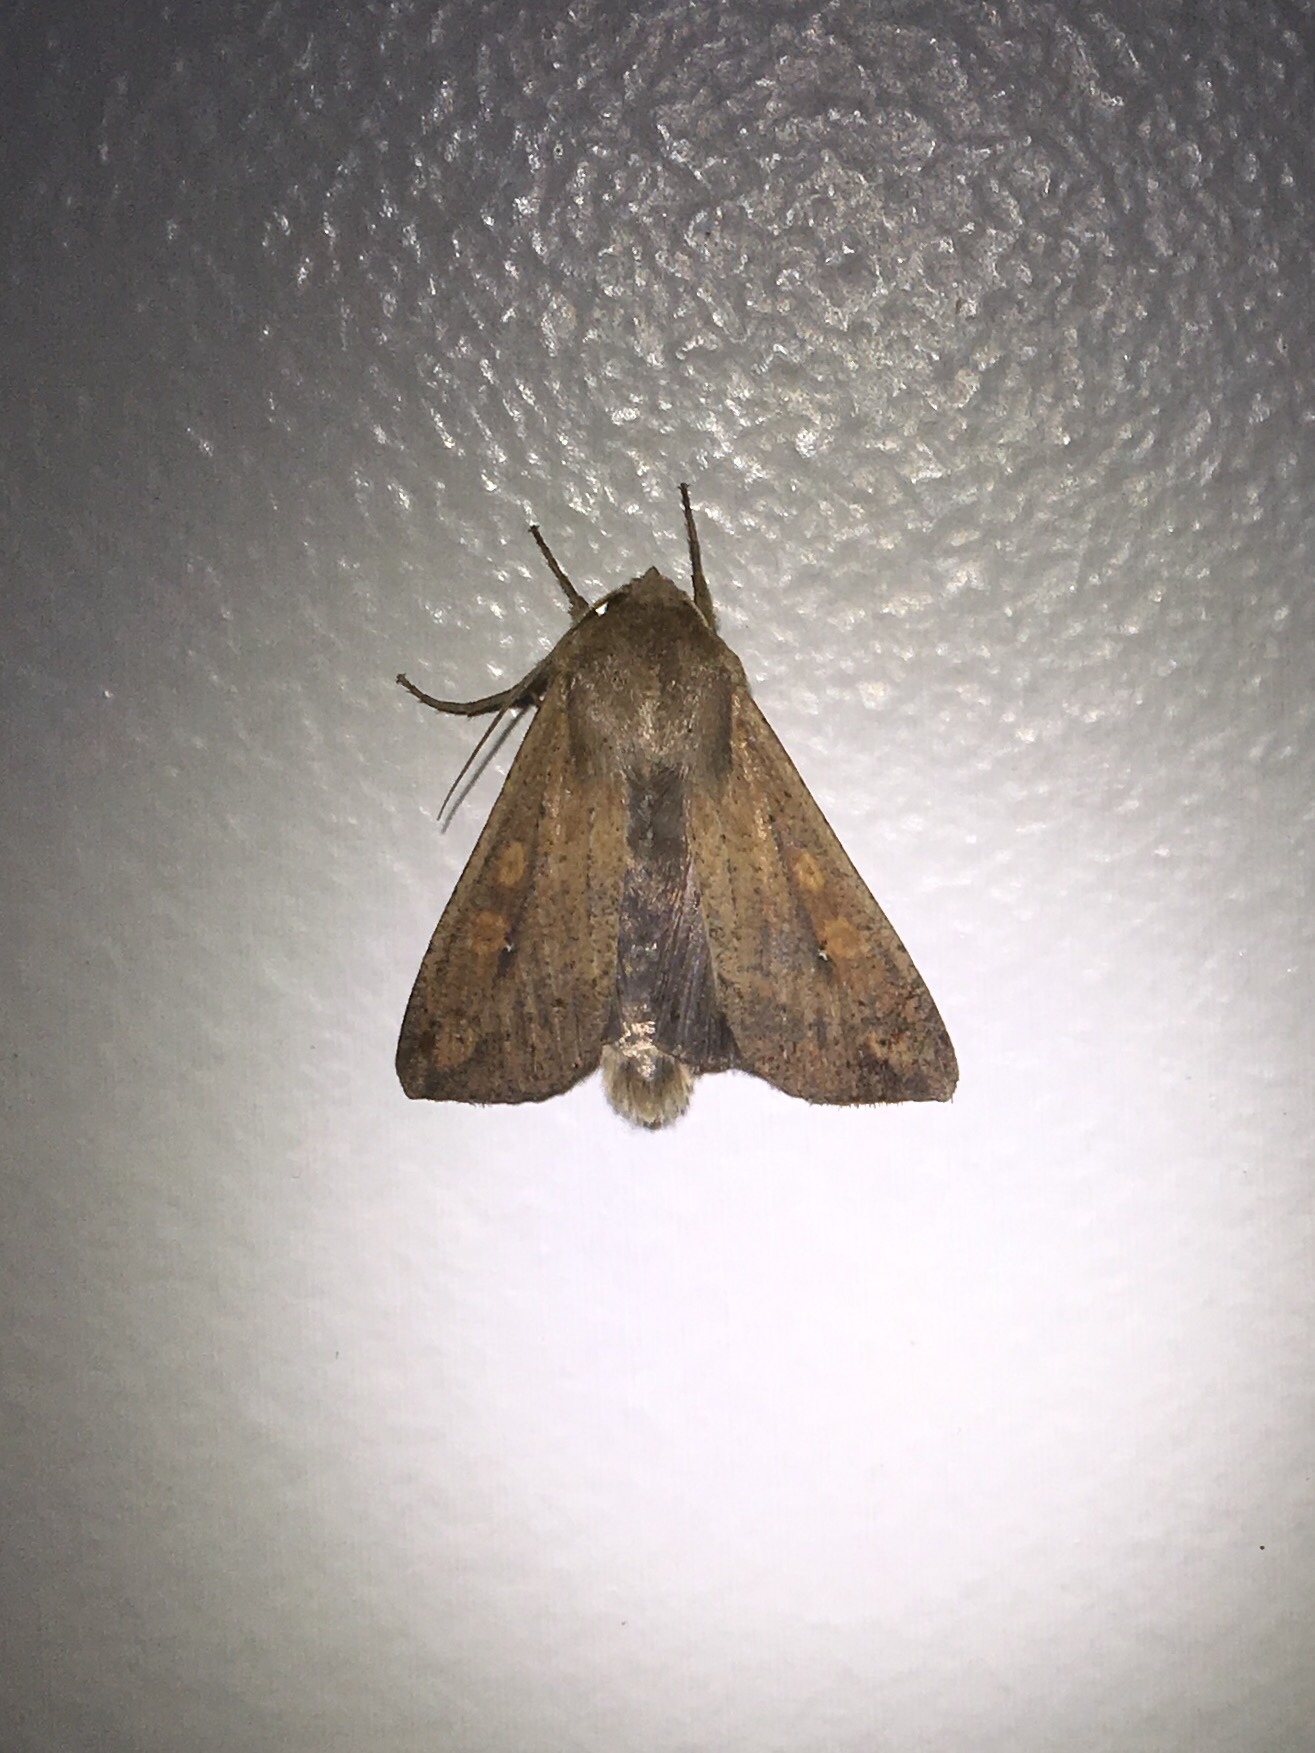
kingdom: Animalia
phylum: Arthropoda
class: Insecta
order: Lepidoptera
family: Noctuidae
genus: Mythimna
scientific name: Mythimna unipuncta
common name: White-speck
